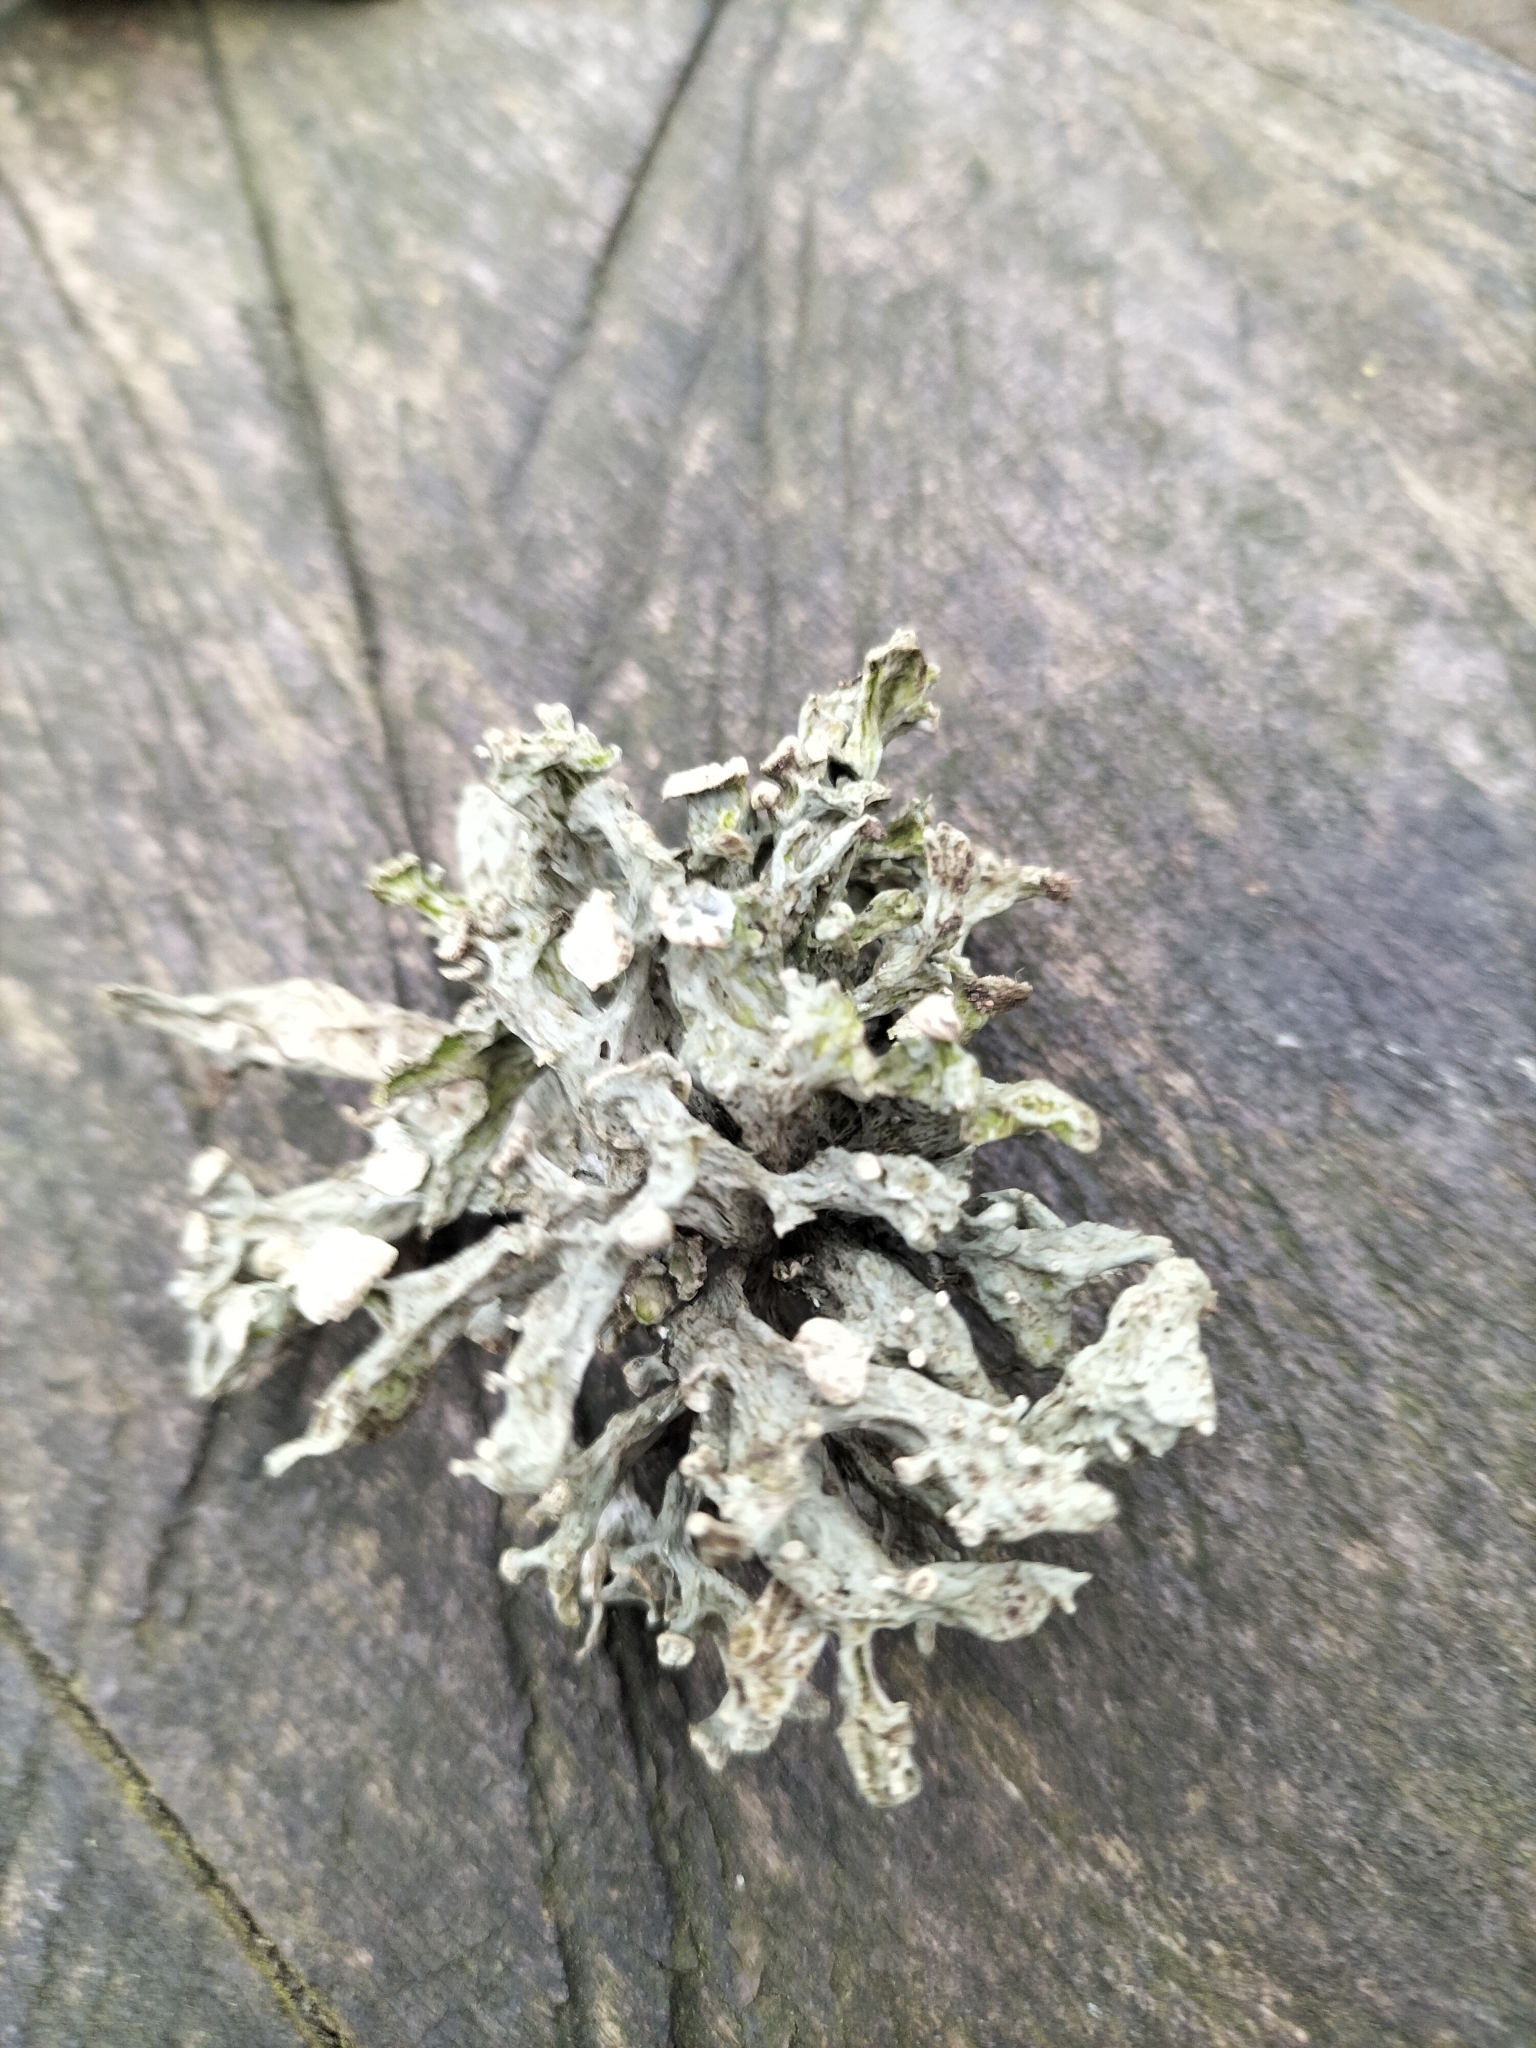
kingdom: Fungi
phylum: Ascomycota
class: Lecanoromycetes
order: Lecanorales
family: Ramalinaceae
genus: Ramalina
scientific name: Ramalina fastigiata
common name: Dotted ribbon lichen
